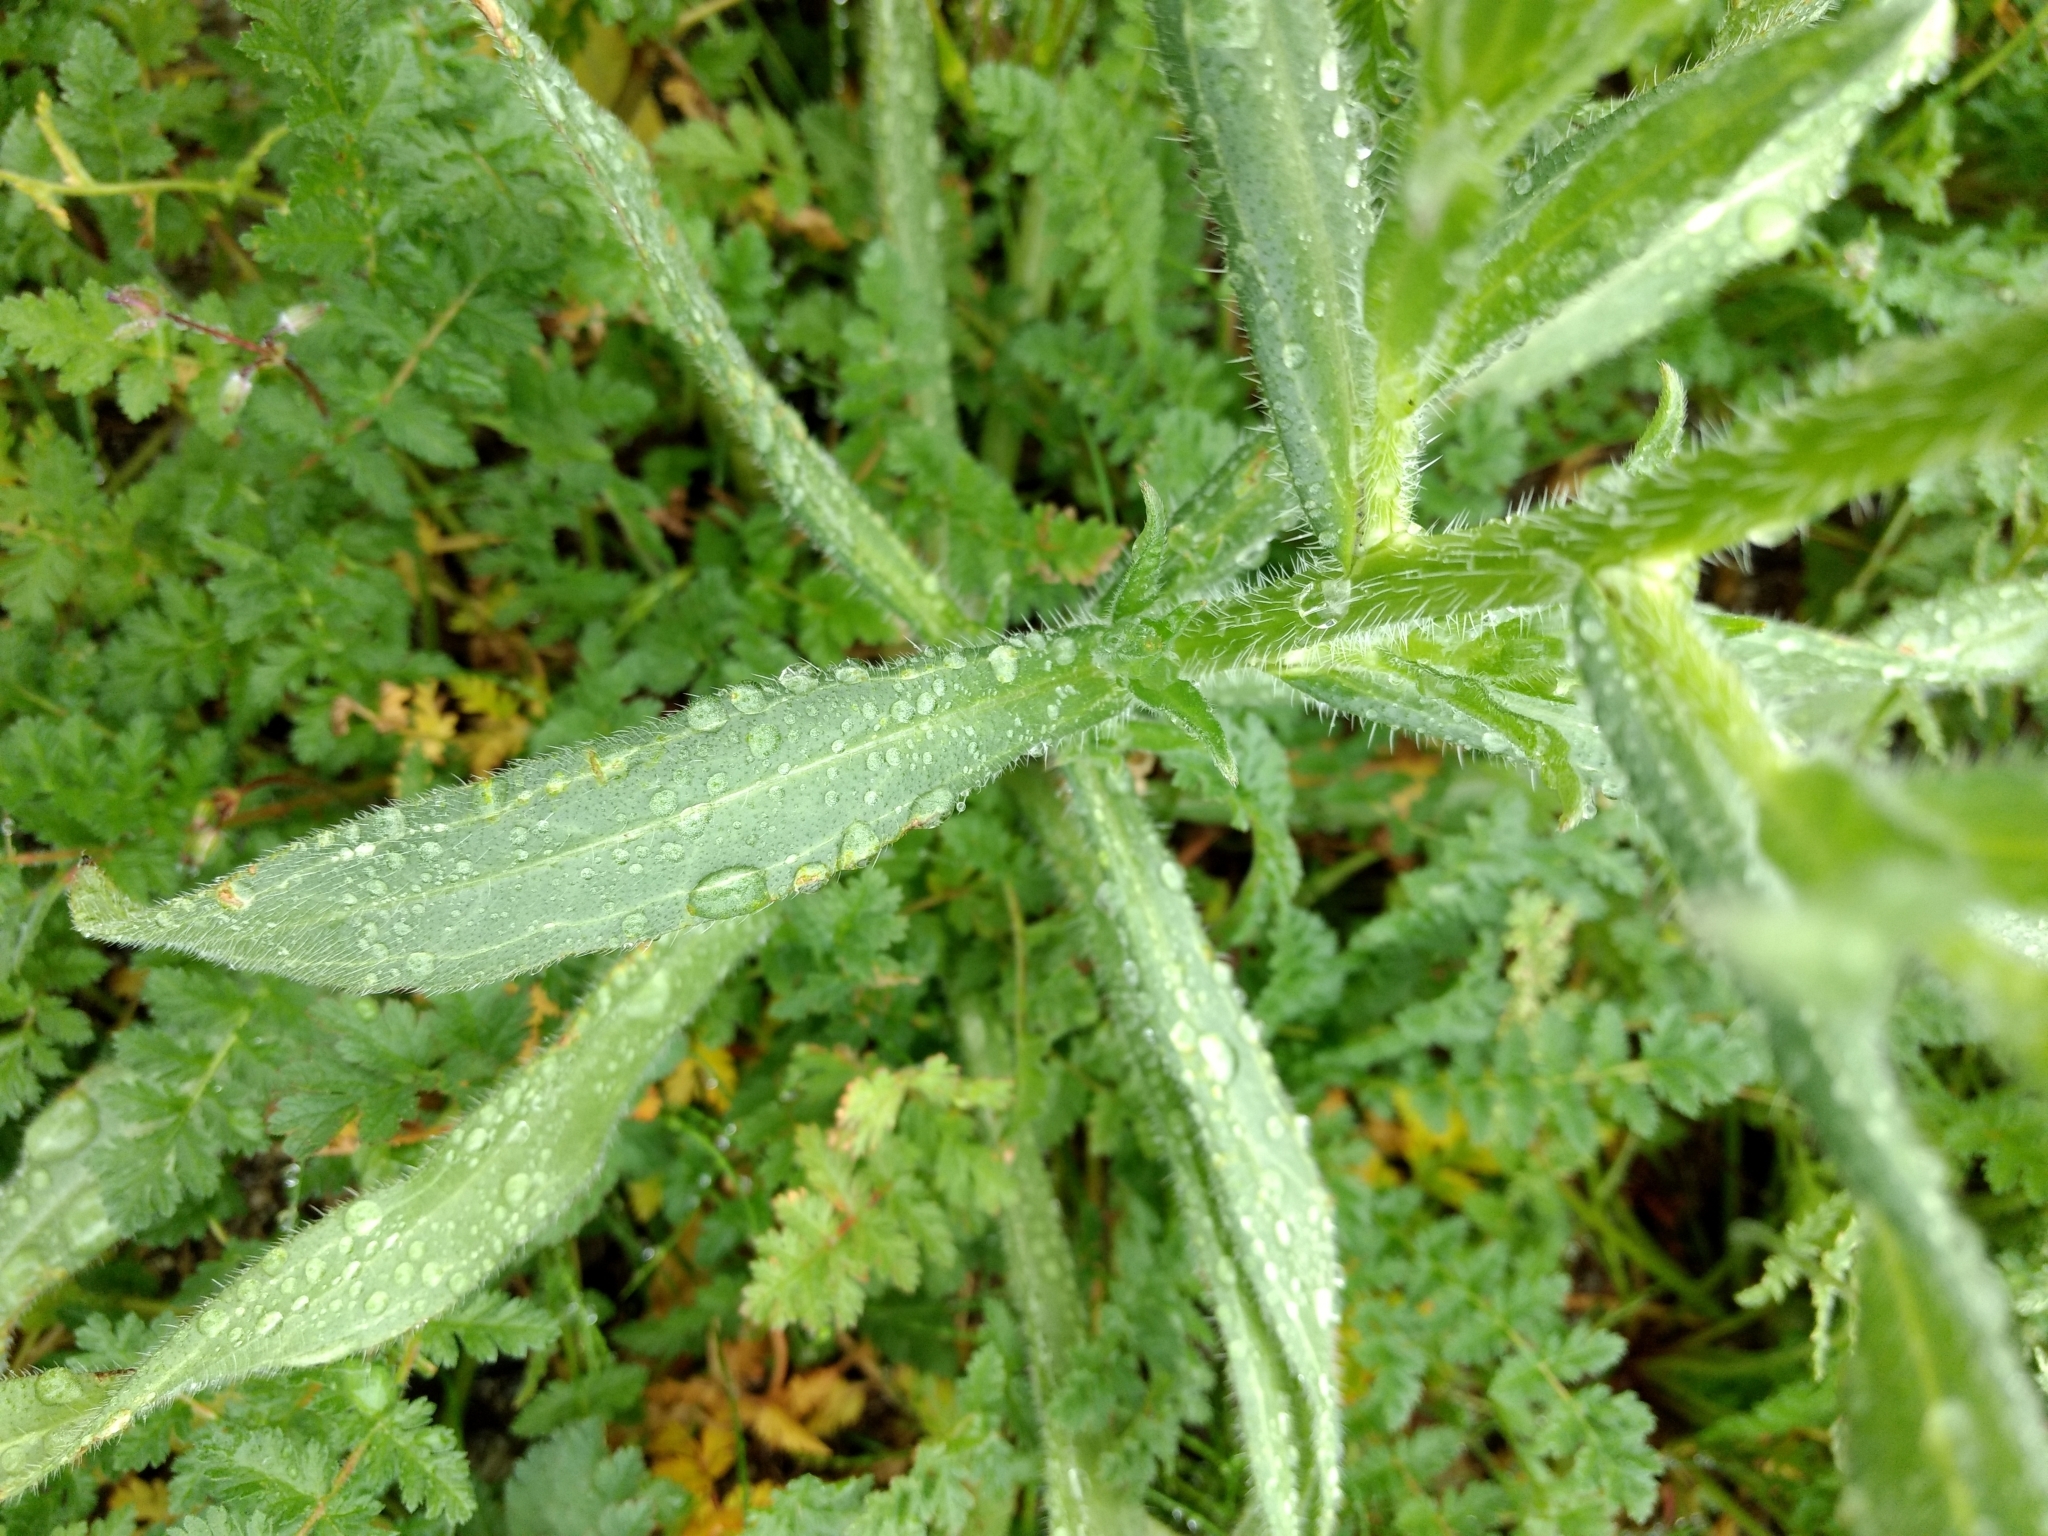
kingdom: Plantae
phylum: Tracheophyta
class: Magnoliopsida
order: Boraginales
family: Boraginaceae
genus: Amsinckia
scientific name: Amsinckia menziesii
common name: Menzies' fiddleneck
